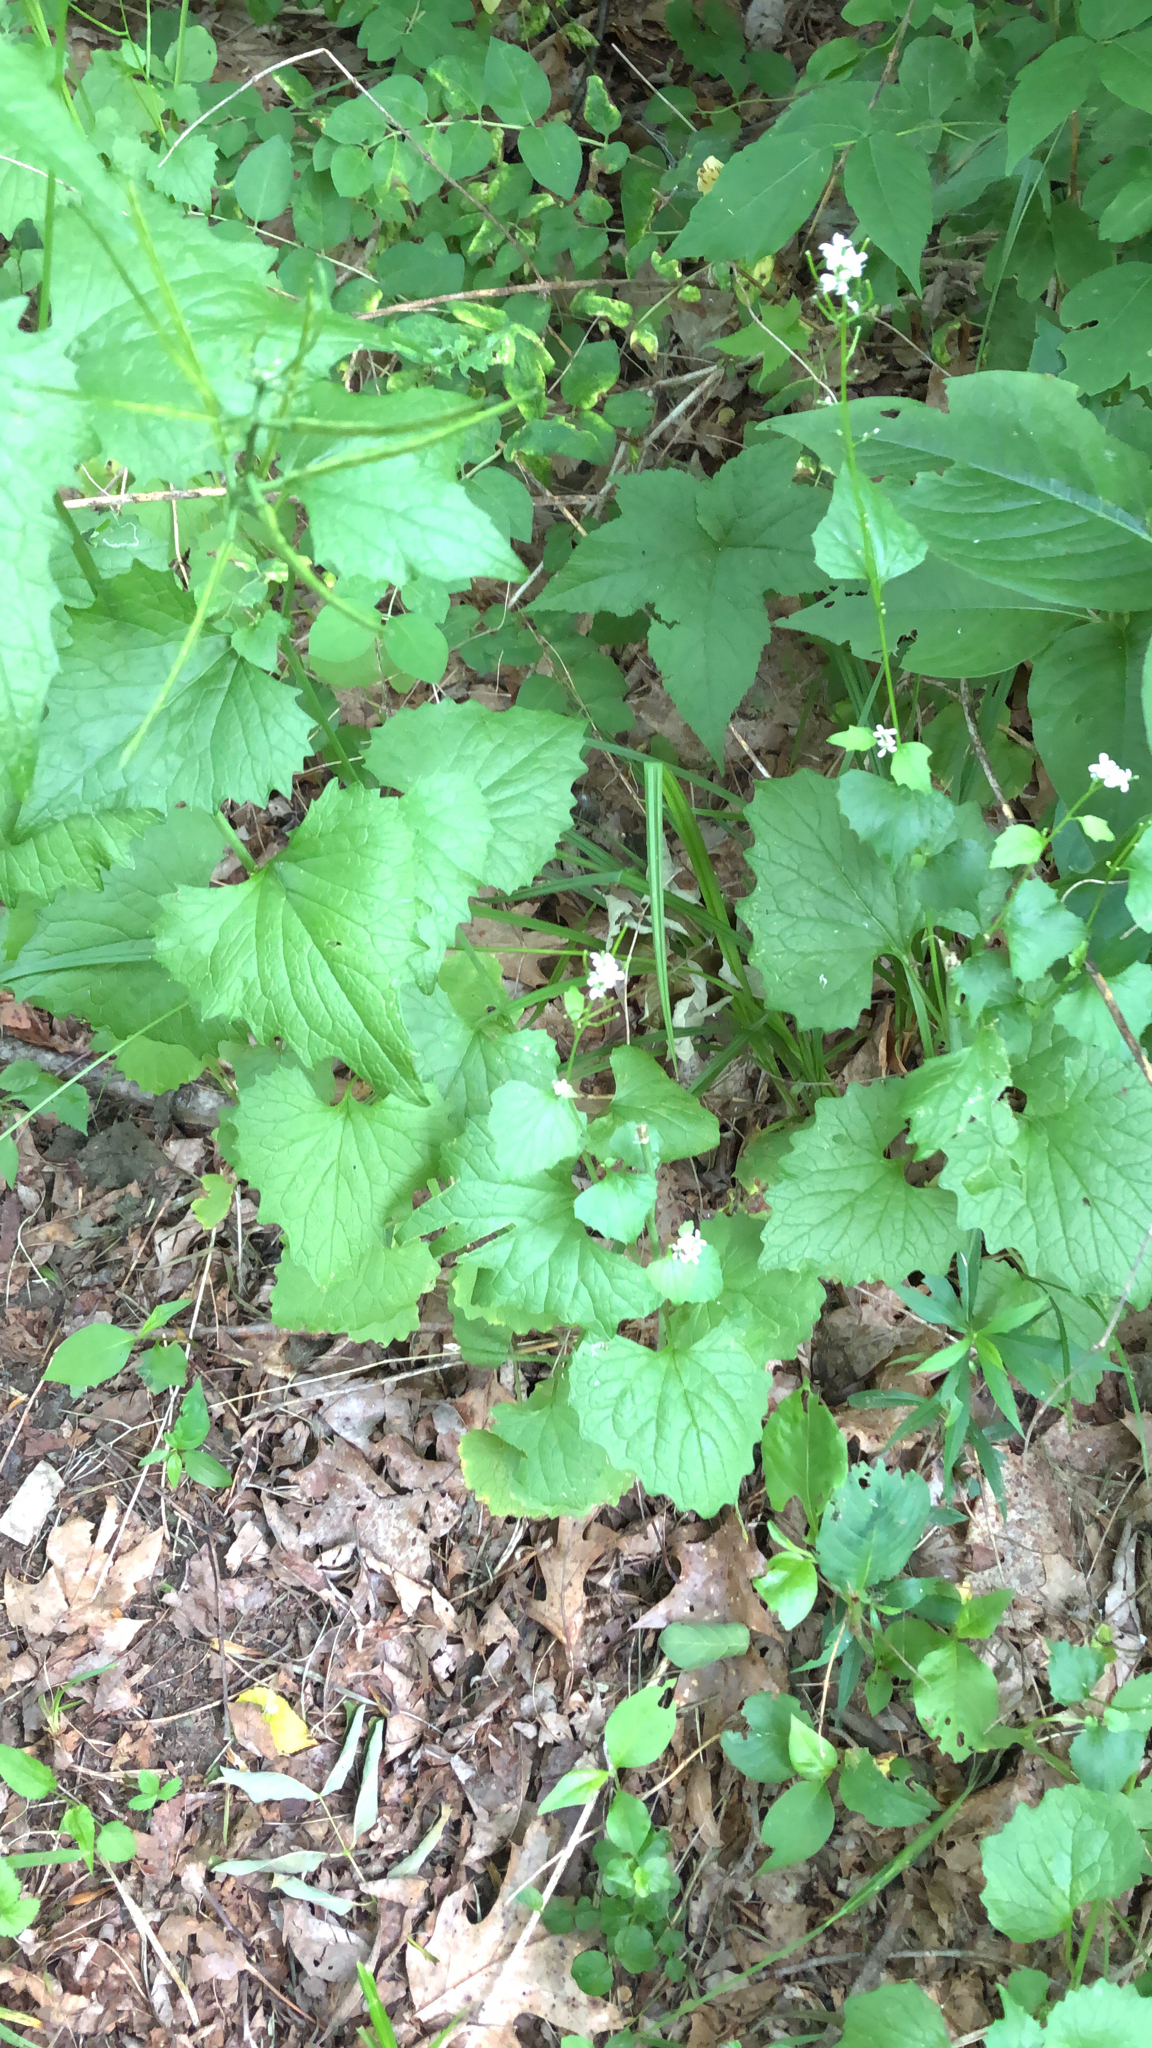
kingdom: Plantae
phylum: Tracheophyta
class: Magnoliopsida
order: Brassicales
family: Brassicaceae
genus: Alliaria
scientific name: Alliaria petiolata
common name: Garlic mustard
